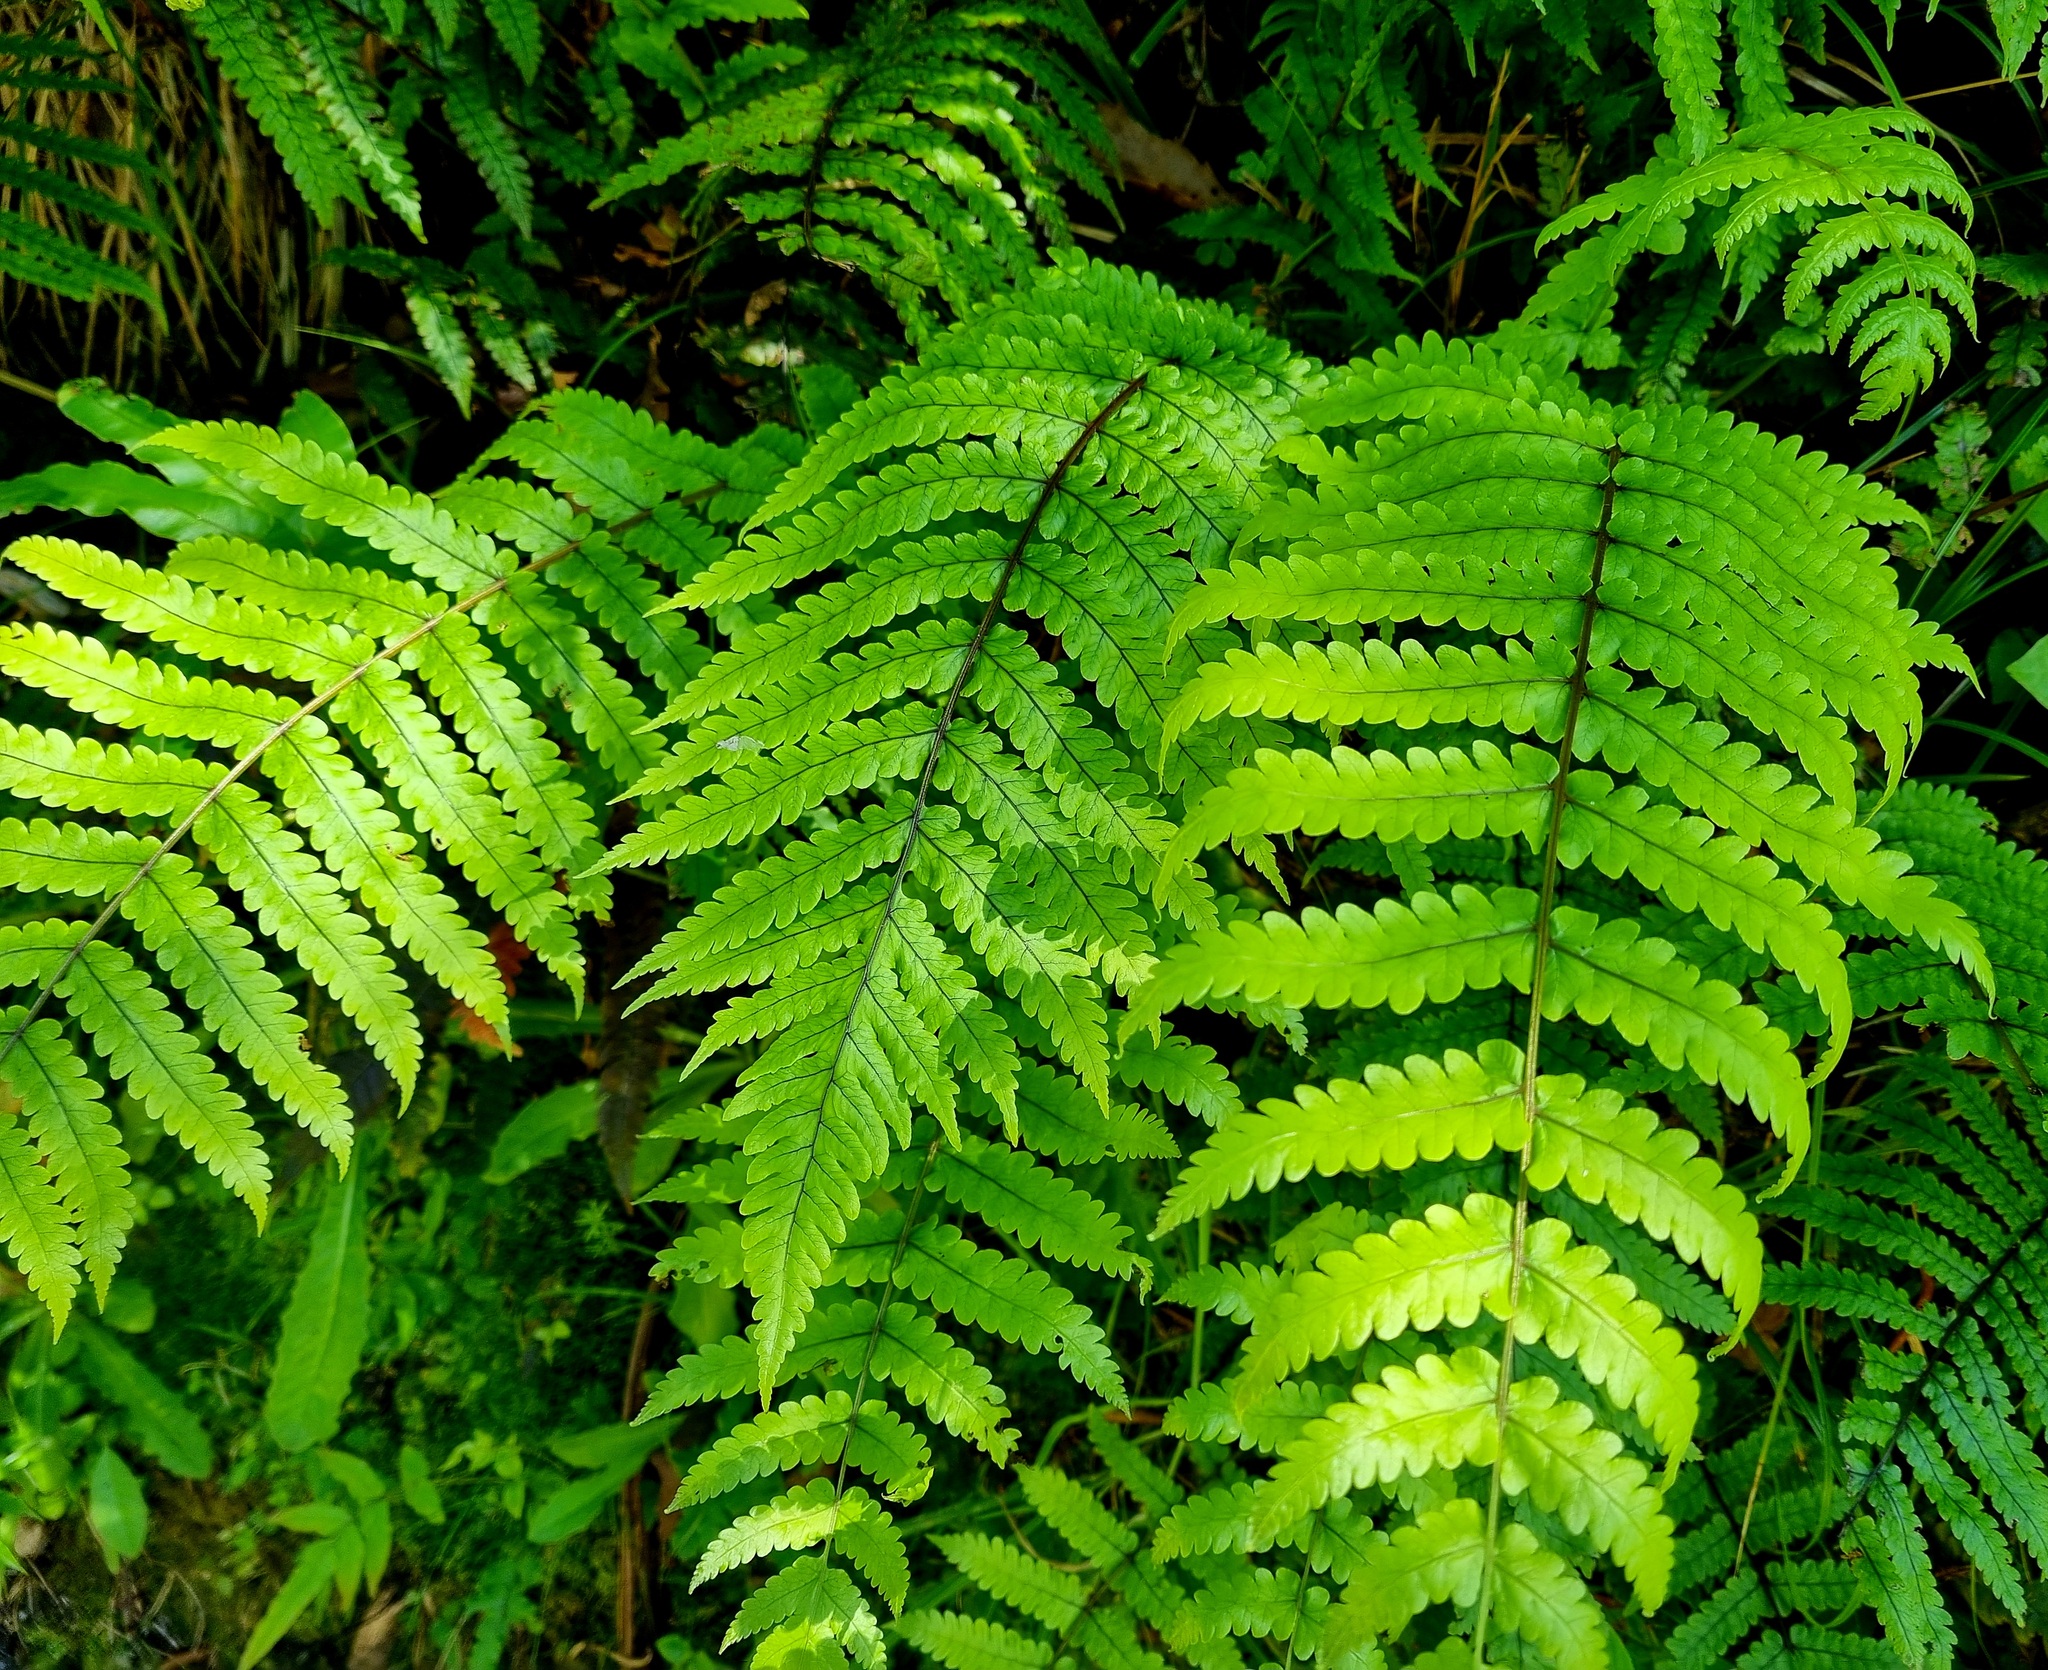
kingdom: Plantae
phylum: Tracheophyta
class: Polypodiopsida
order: Polypodiales
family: Thelypteridaceae
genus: Pakau
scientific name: Pakau pennigera
